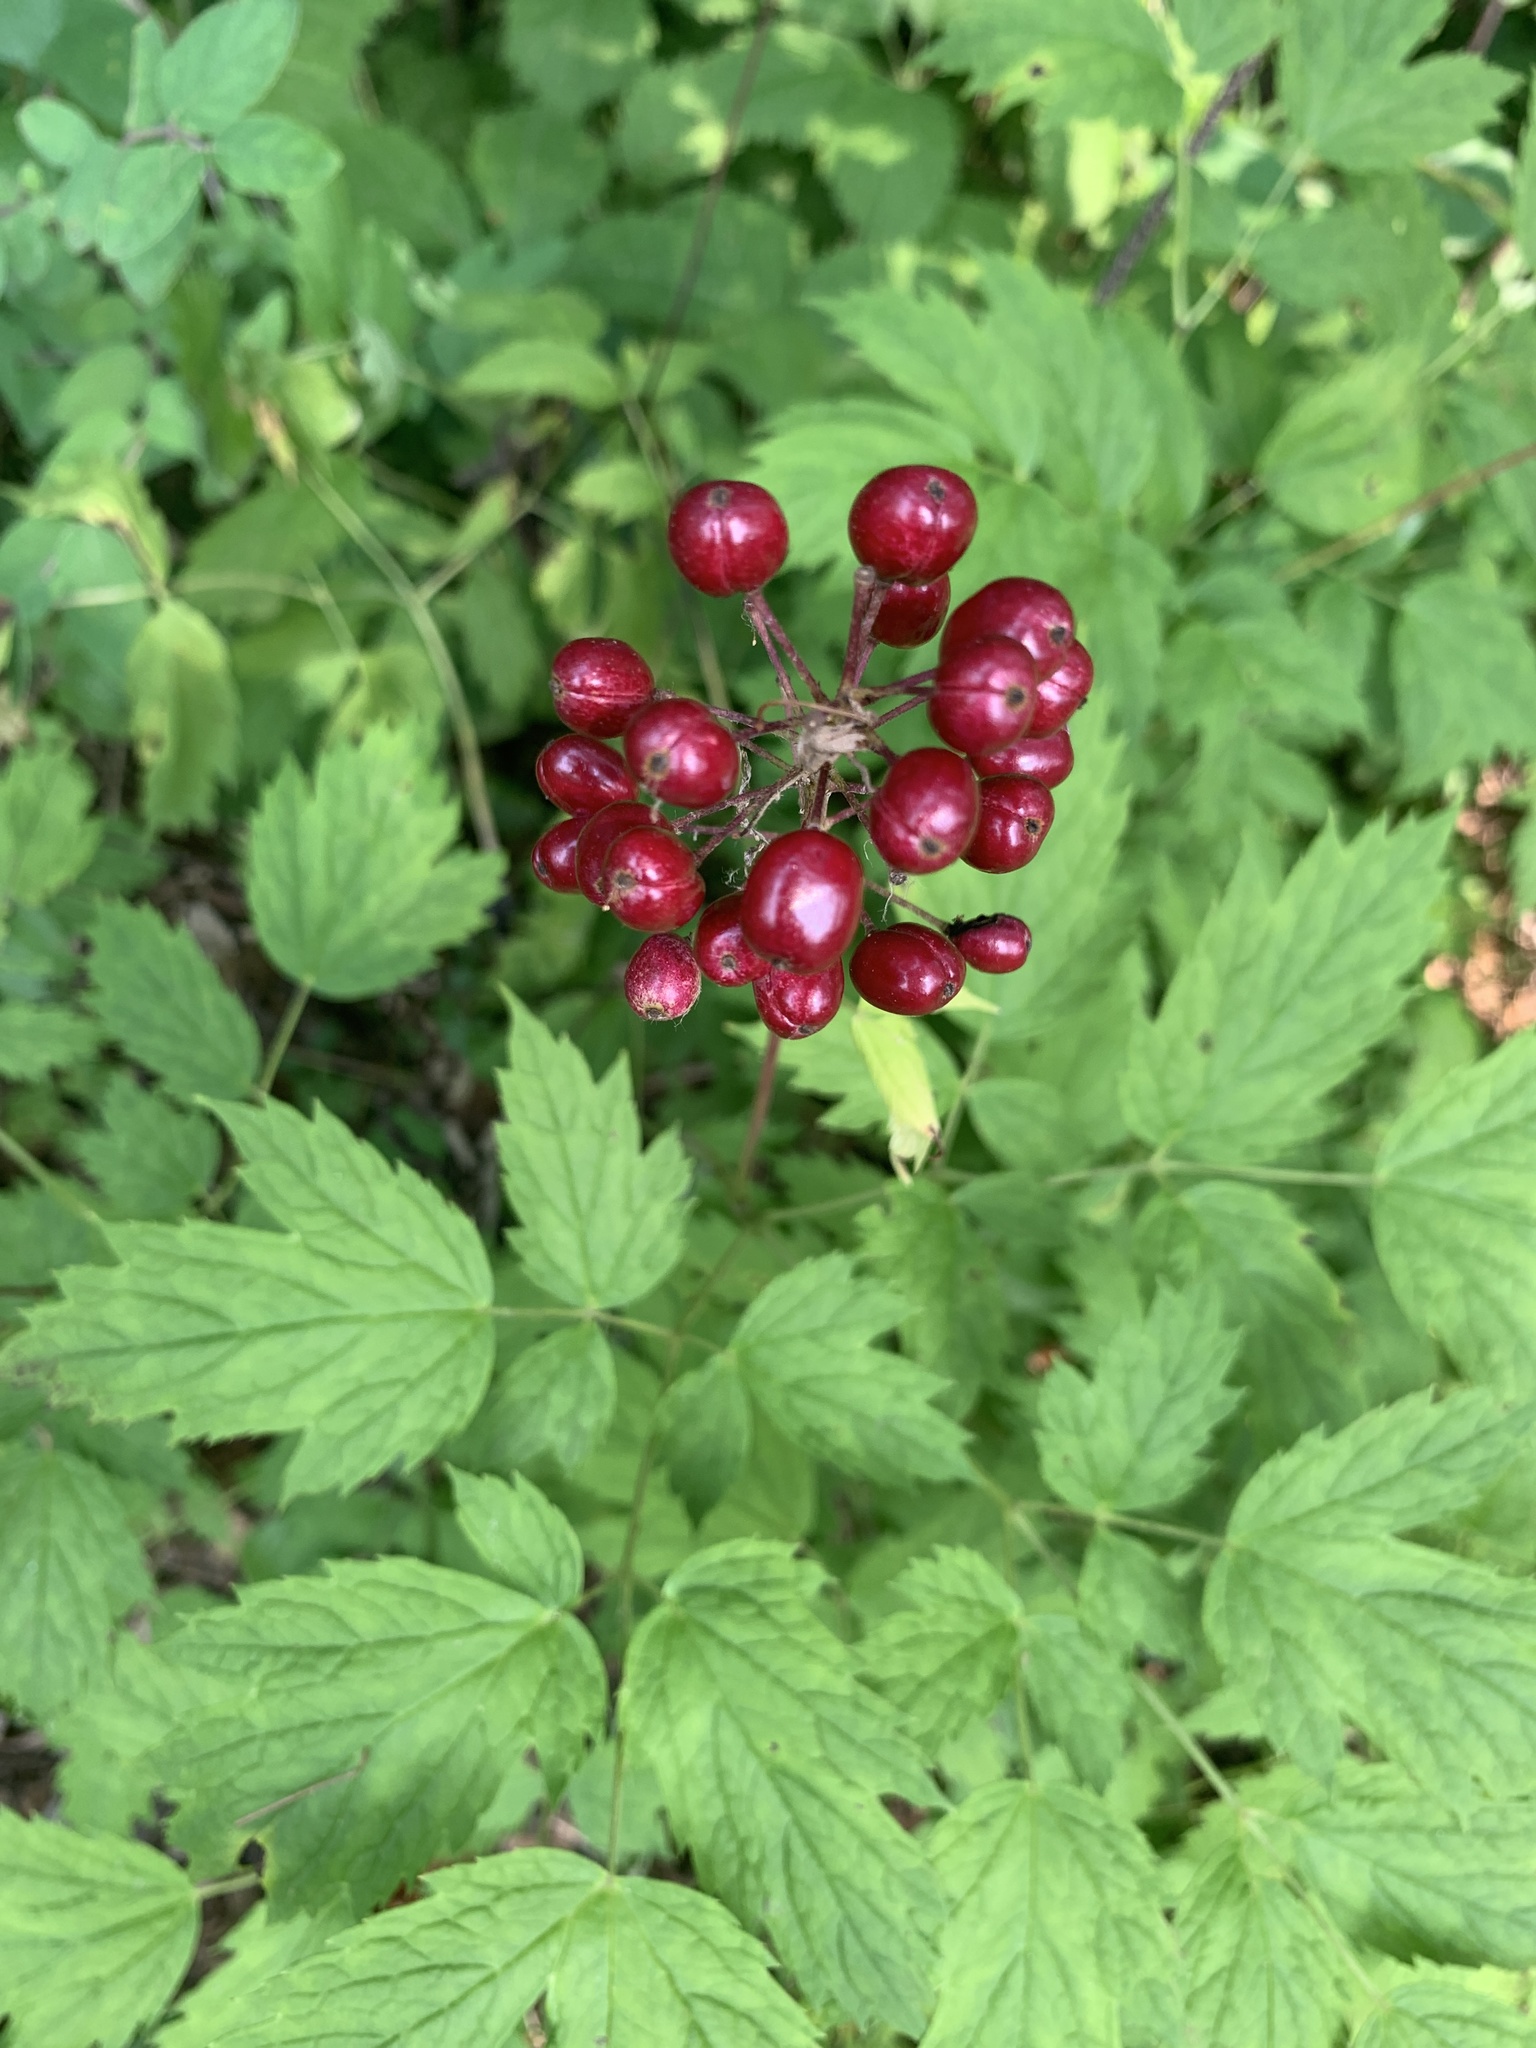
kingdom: Plantae
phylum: Tracheophyta
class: Magnoliopsida
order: Ranunculales
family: Ranunculaceae
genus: Actaea
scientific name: Actaea rubra
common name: Red baneberry
